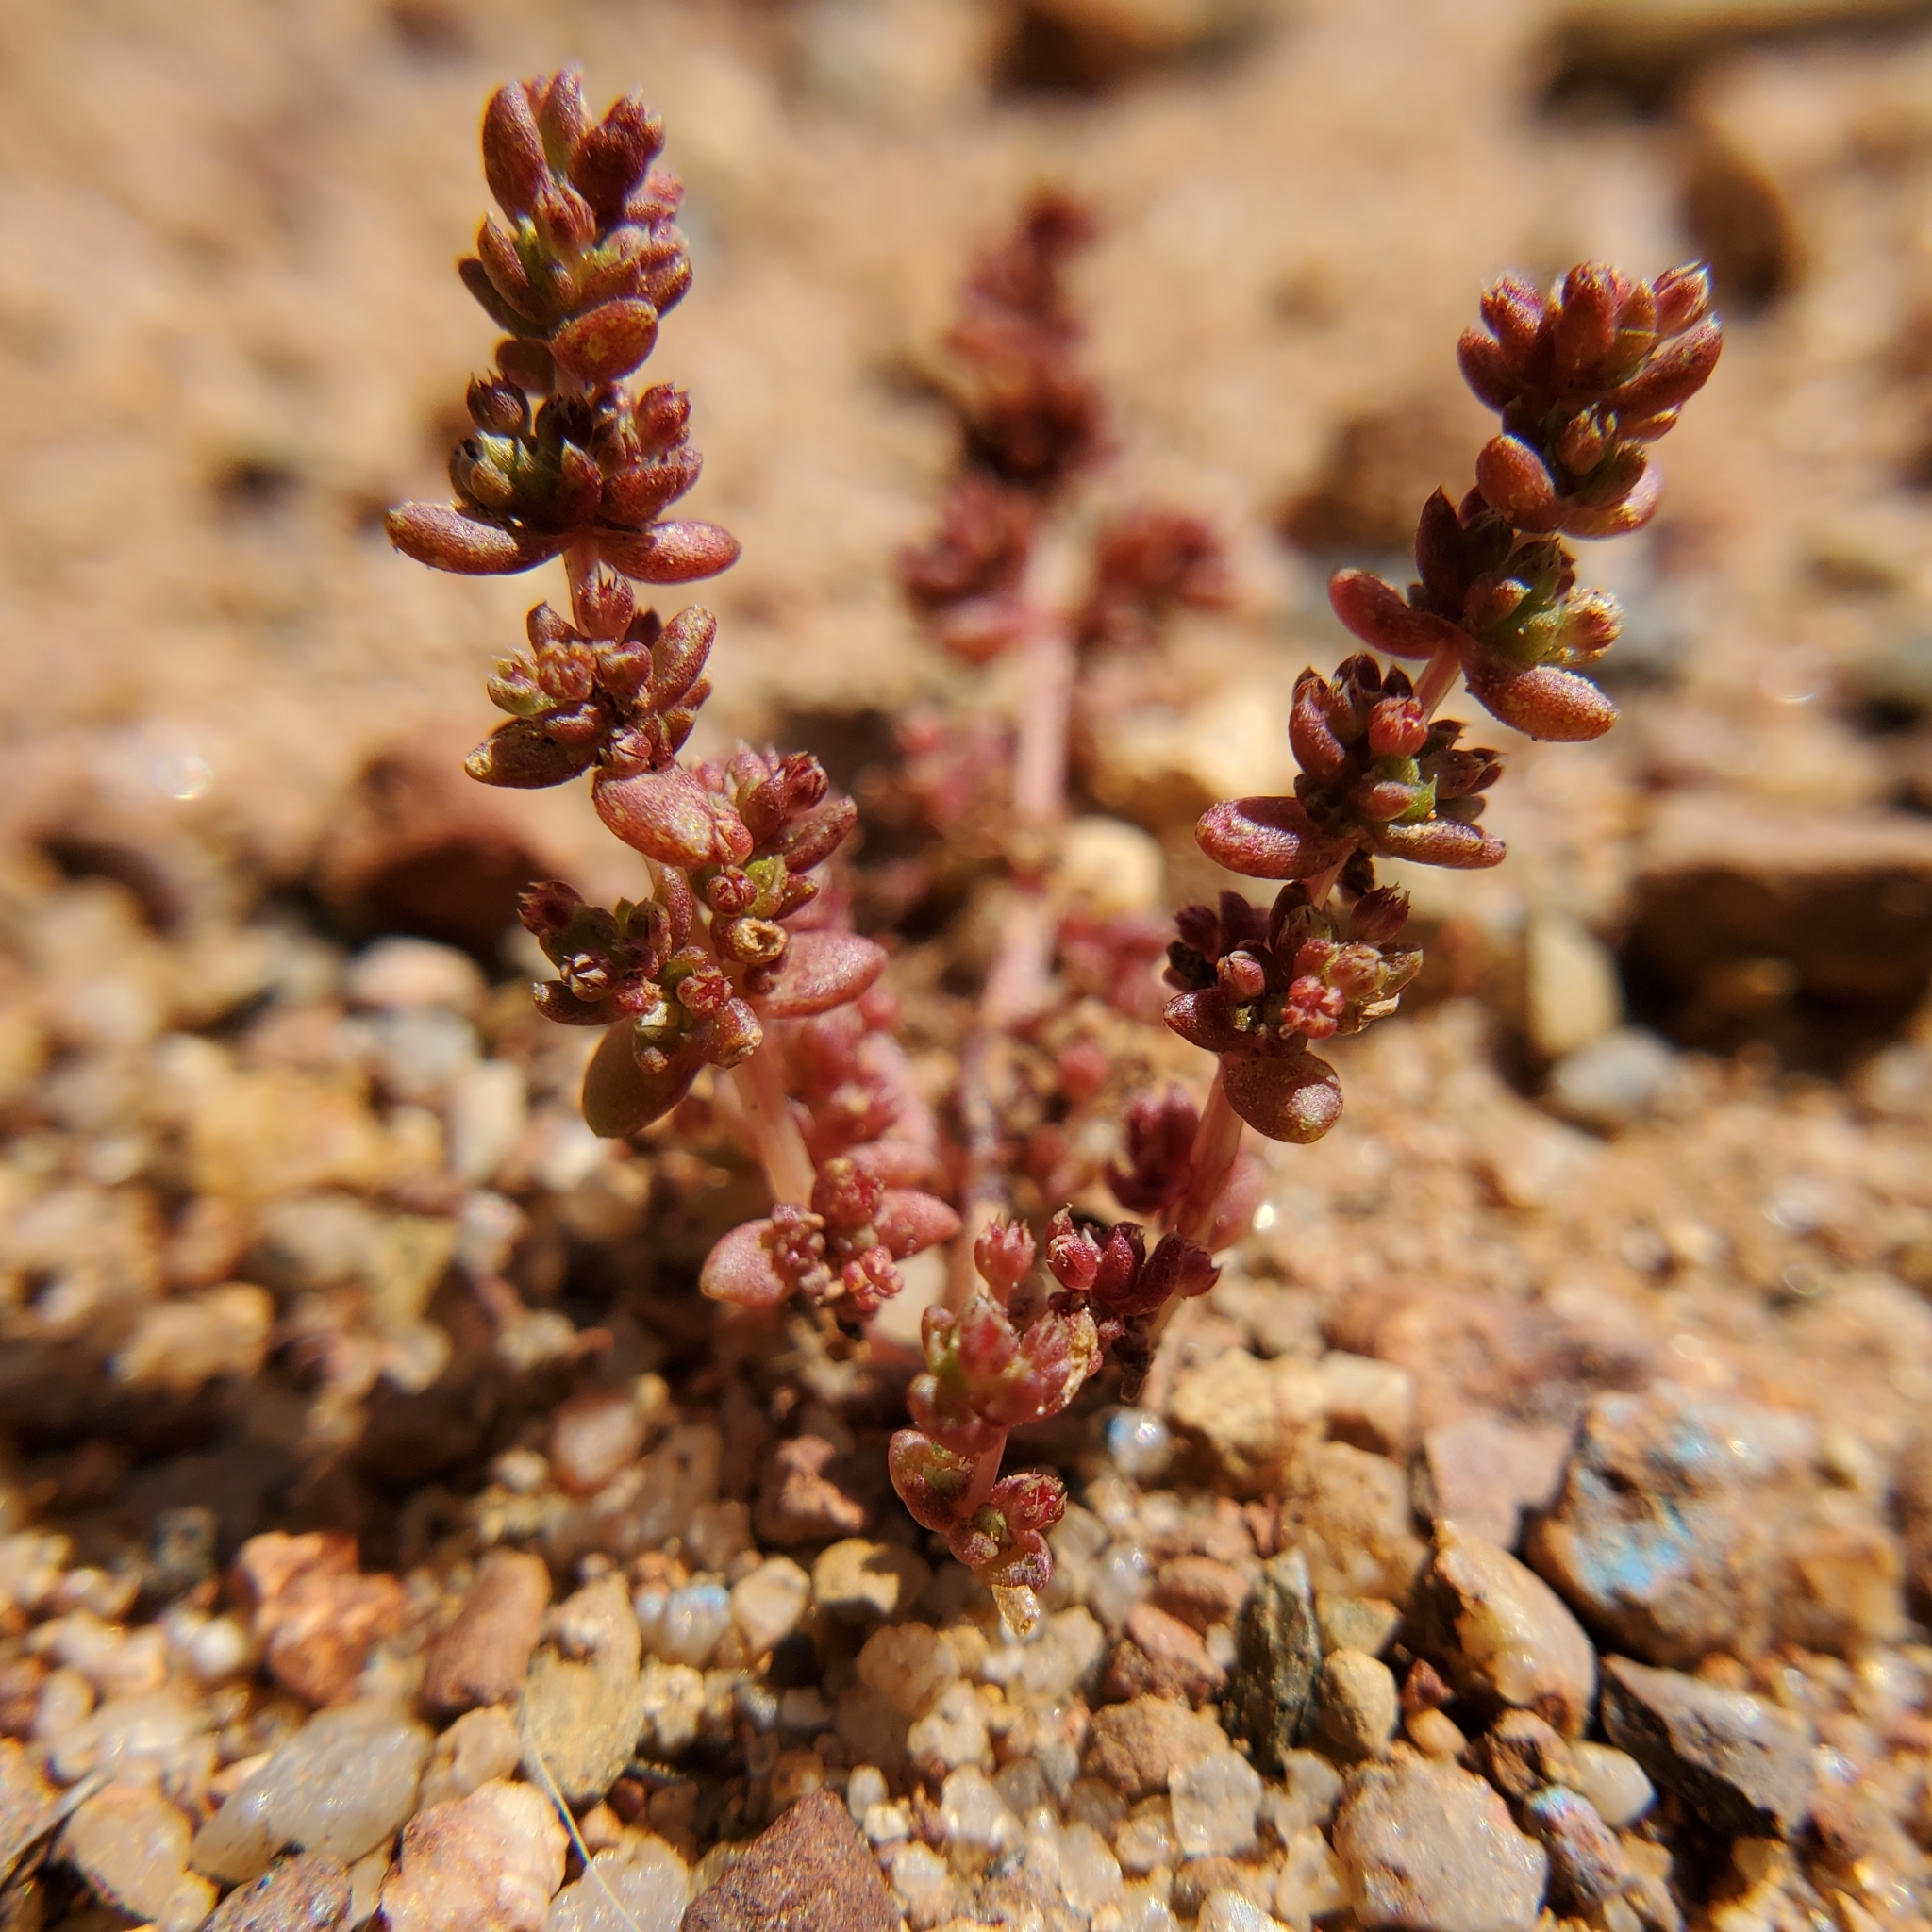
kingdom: Plantae
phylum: Tracheophyta
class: Magnoliopsida
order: Saxifragales
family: Crassulaceae
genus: Crassula
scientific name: Crassula connata
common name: Erect pygmyweed
